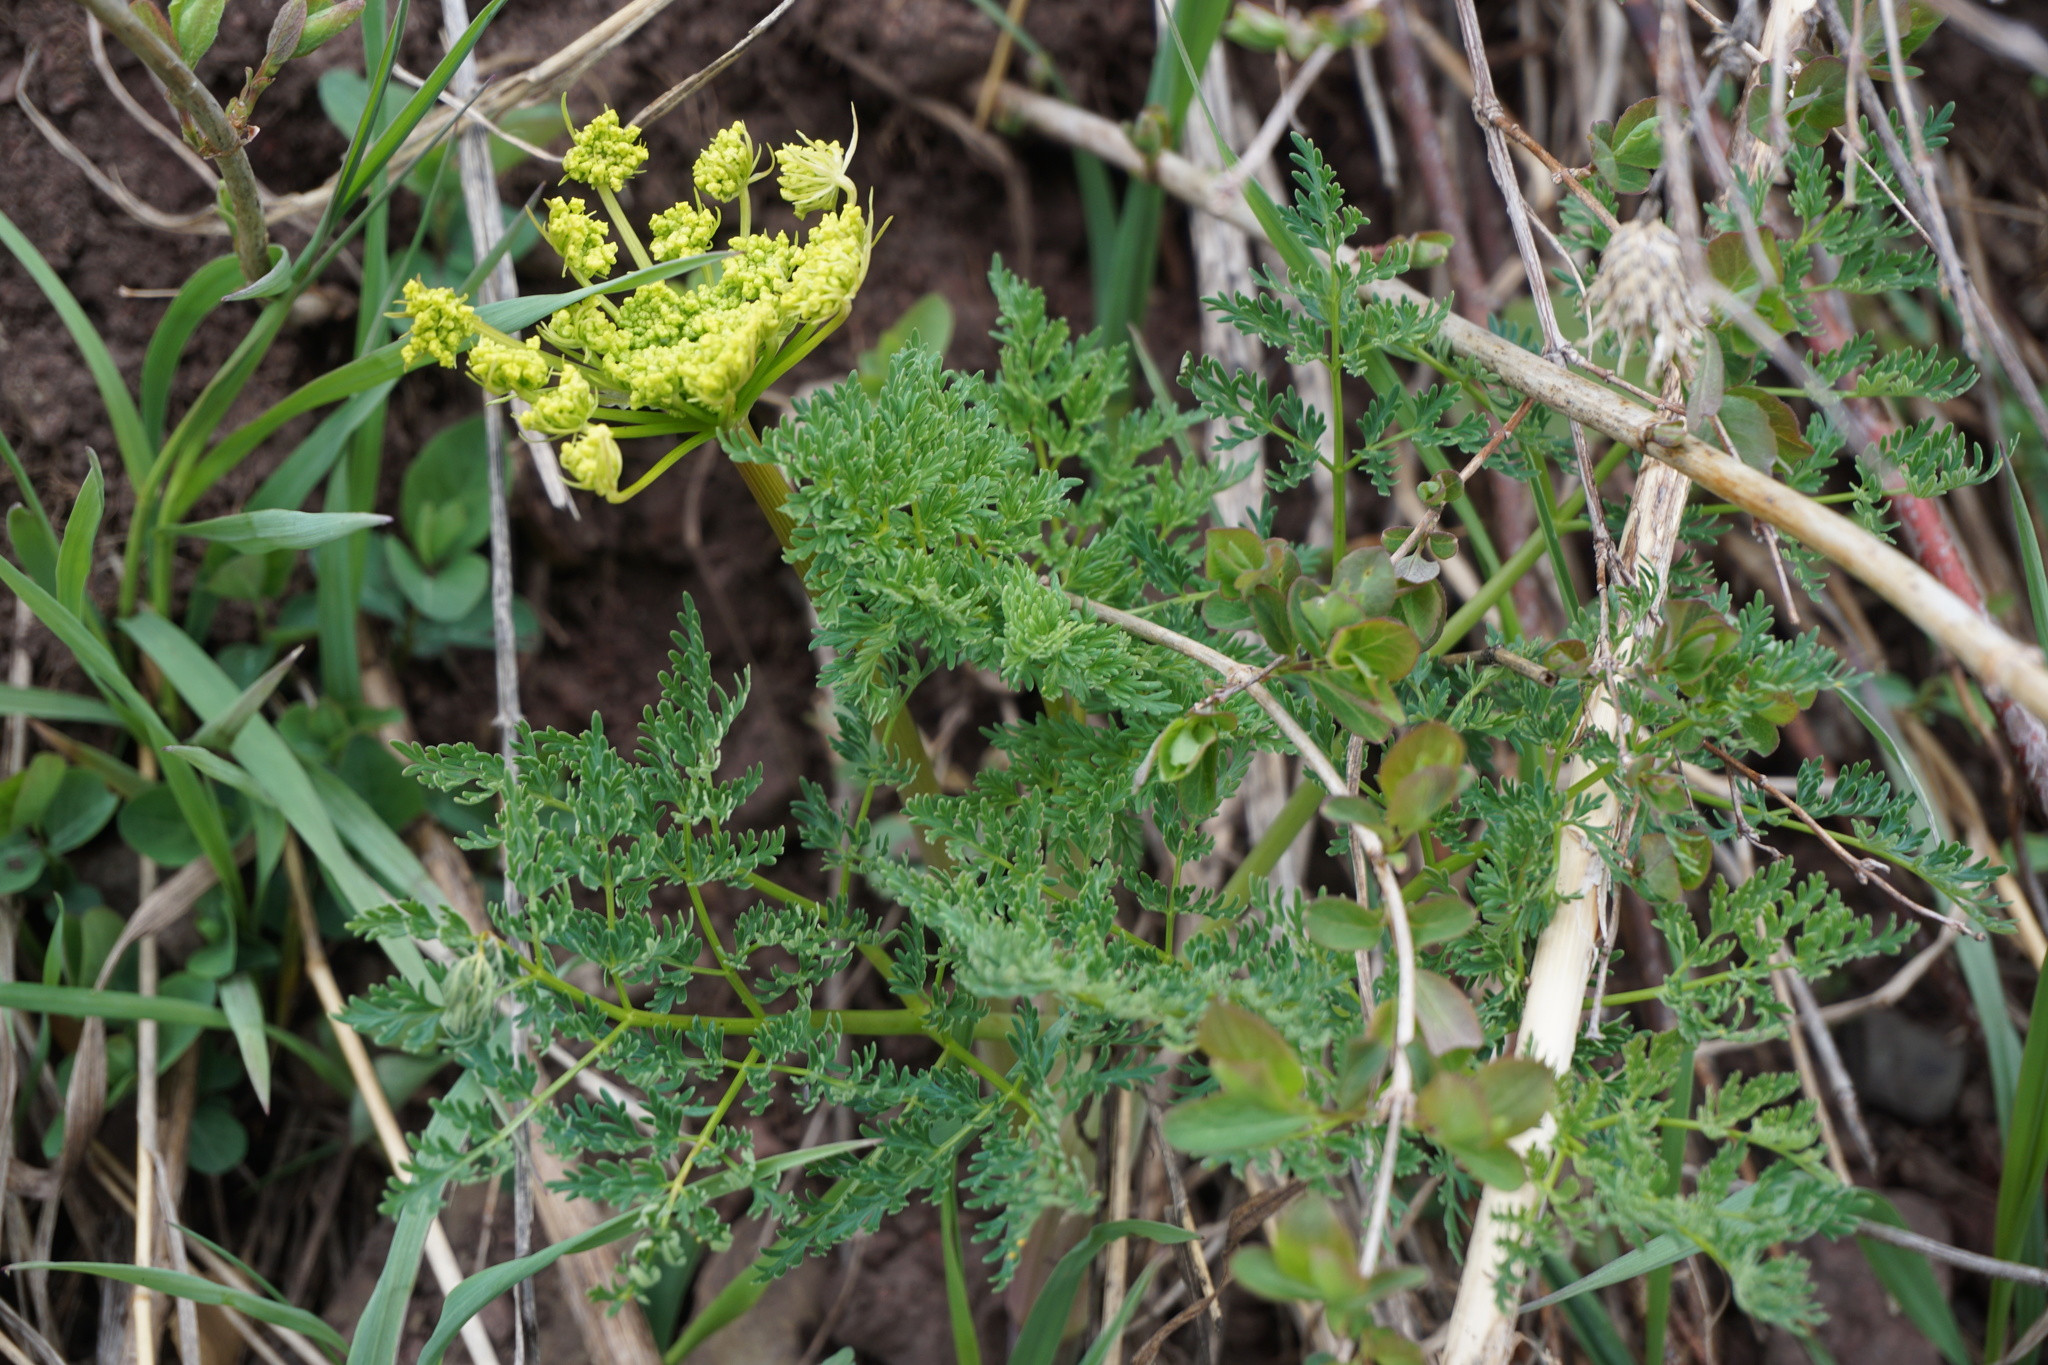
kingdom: Plantae
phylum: Tracheophyta
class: Magnoliopsida
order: Apiales
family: Apiaceae
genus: Lomatium
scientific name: Lomatium multifidum
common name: Carrot-leaved biscuitroot
